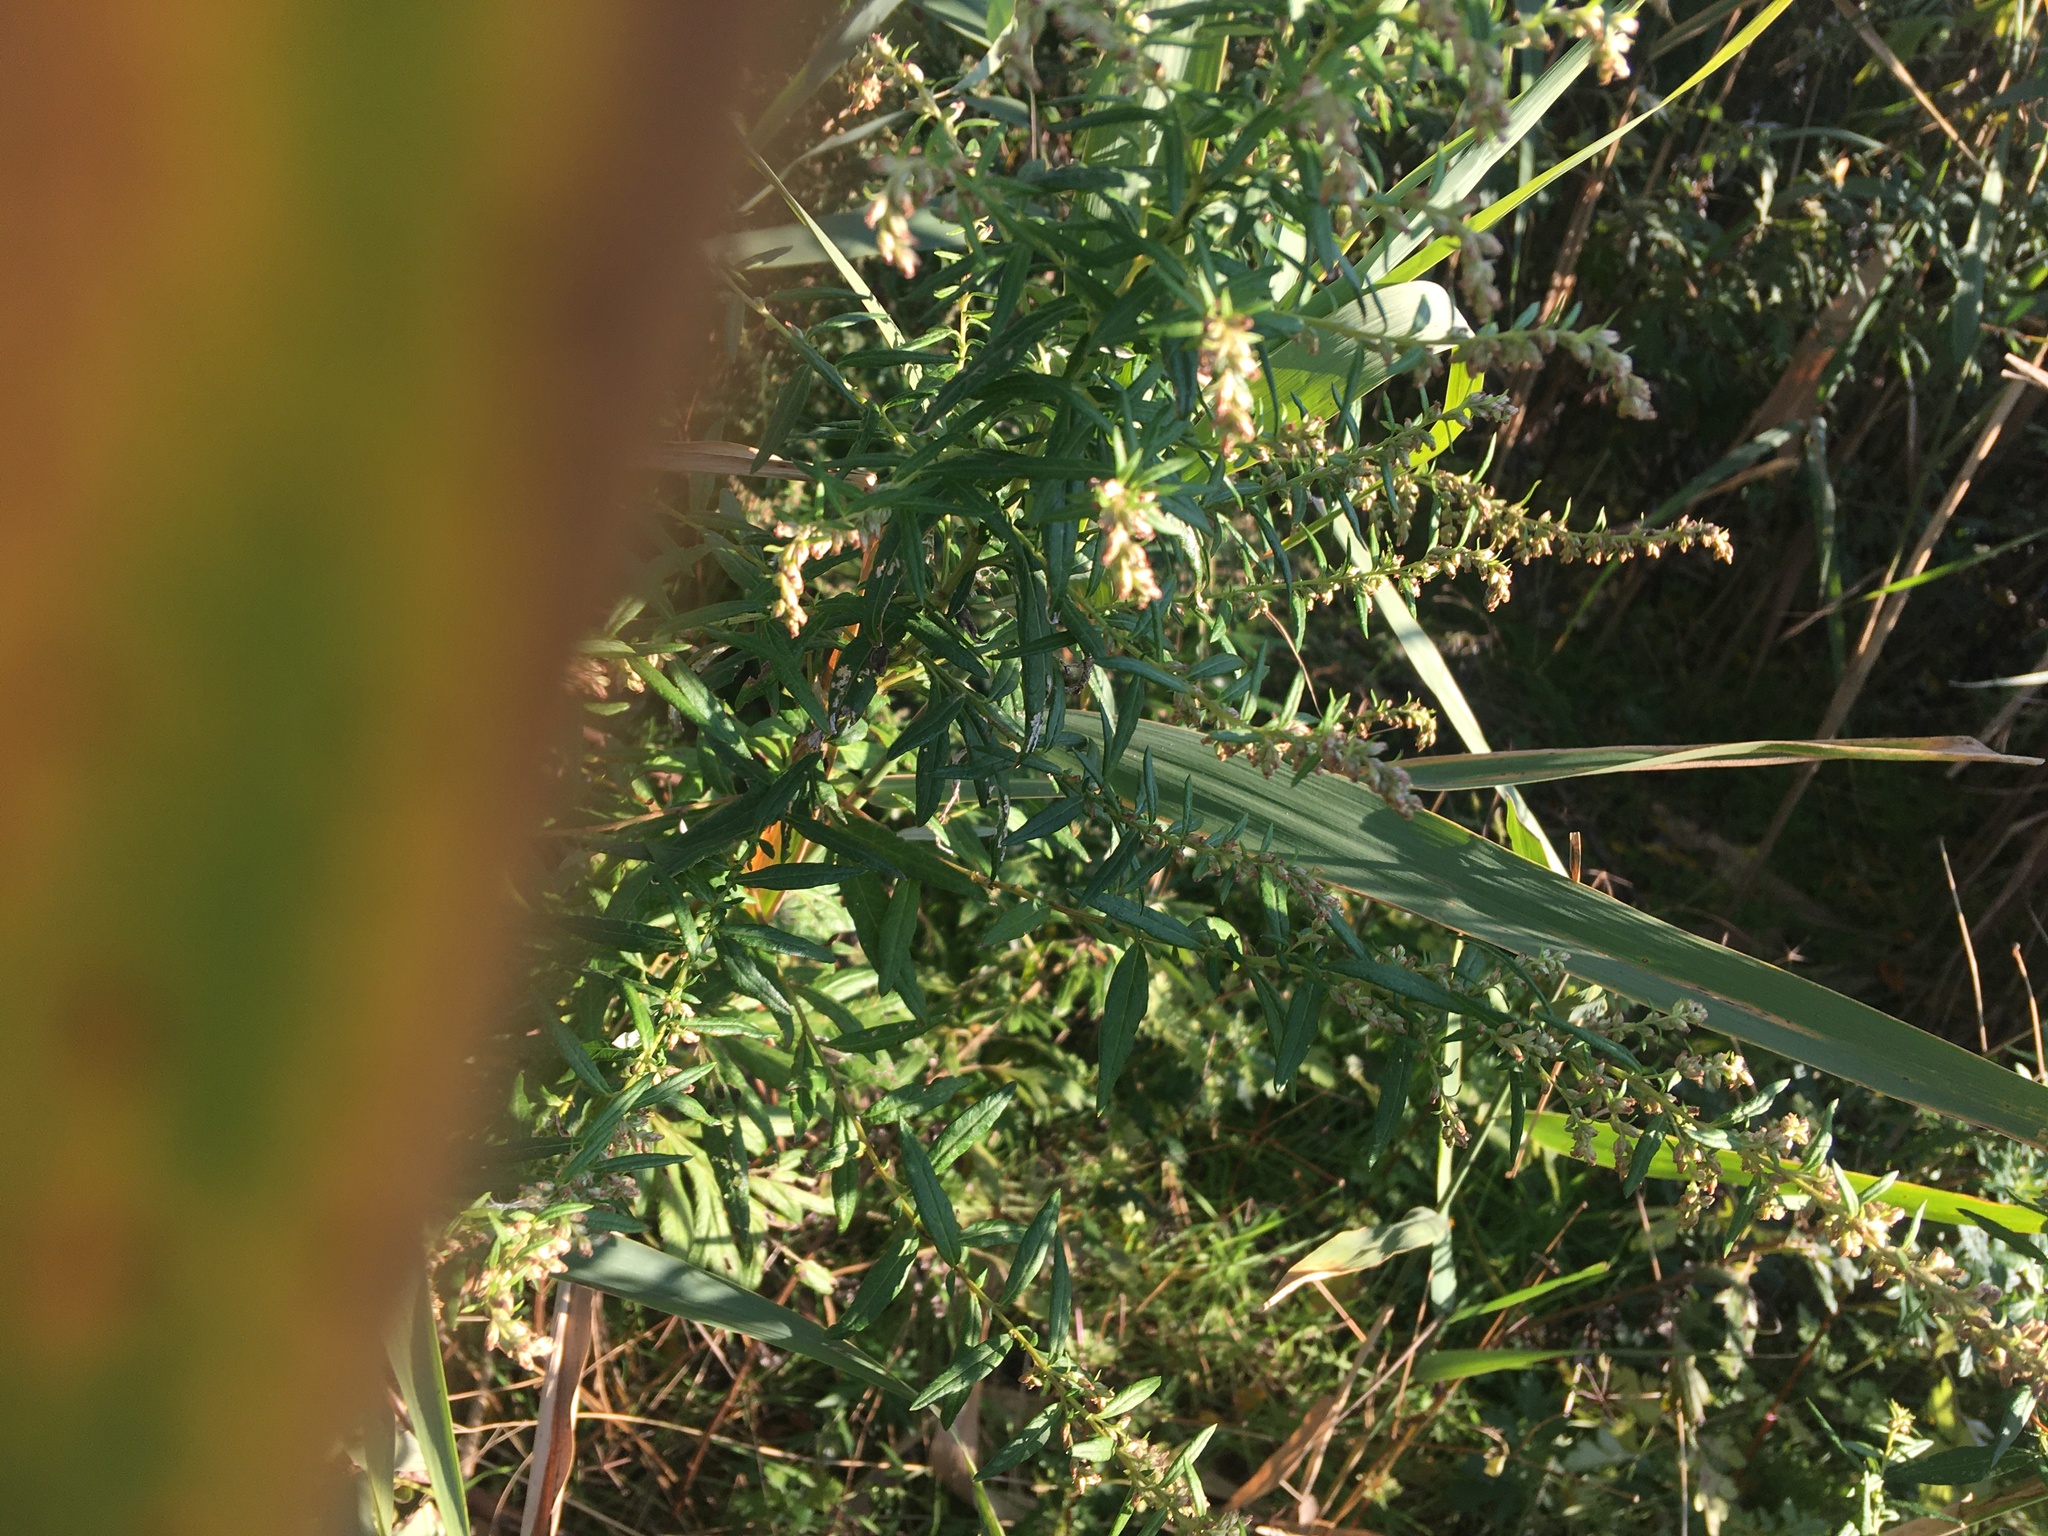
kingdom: Plantae
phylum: Tracheophyta
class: Magnoliopsida
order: Asterales
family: Asteraceae
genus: Artemisia
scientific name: Artemisia vulgaris
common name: Mugwort
